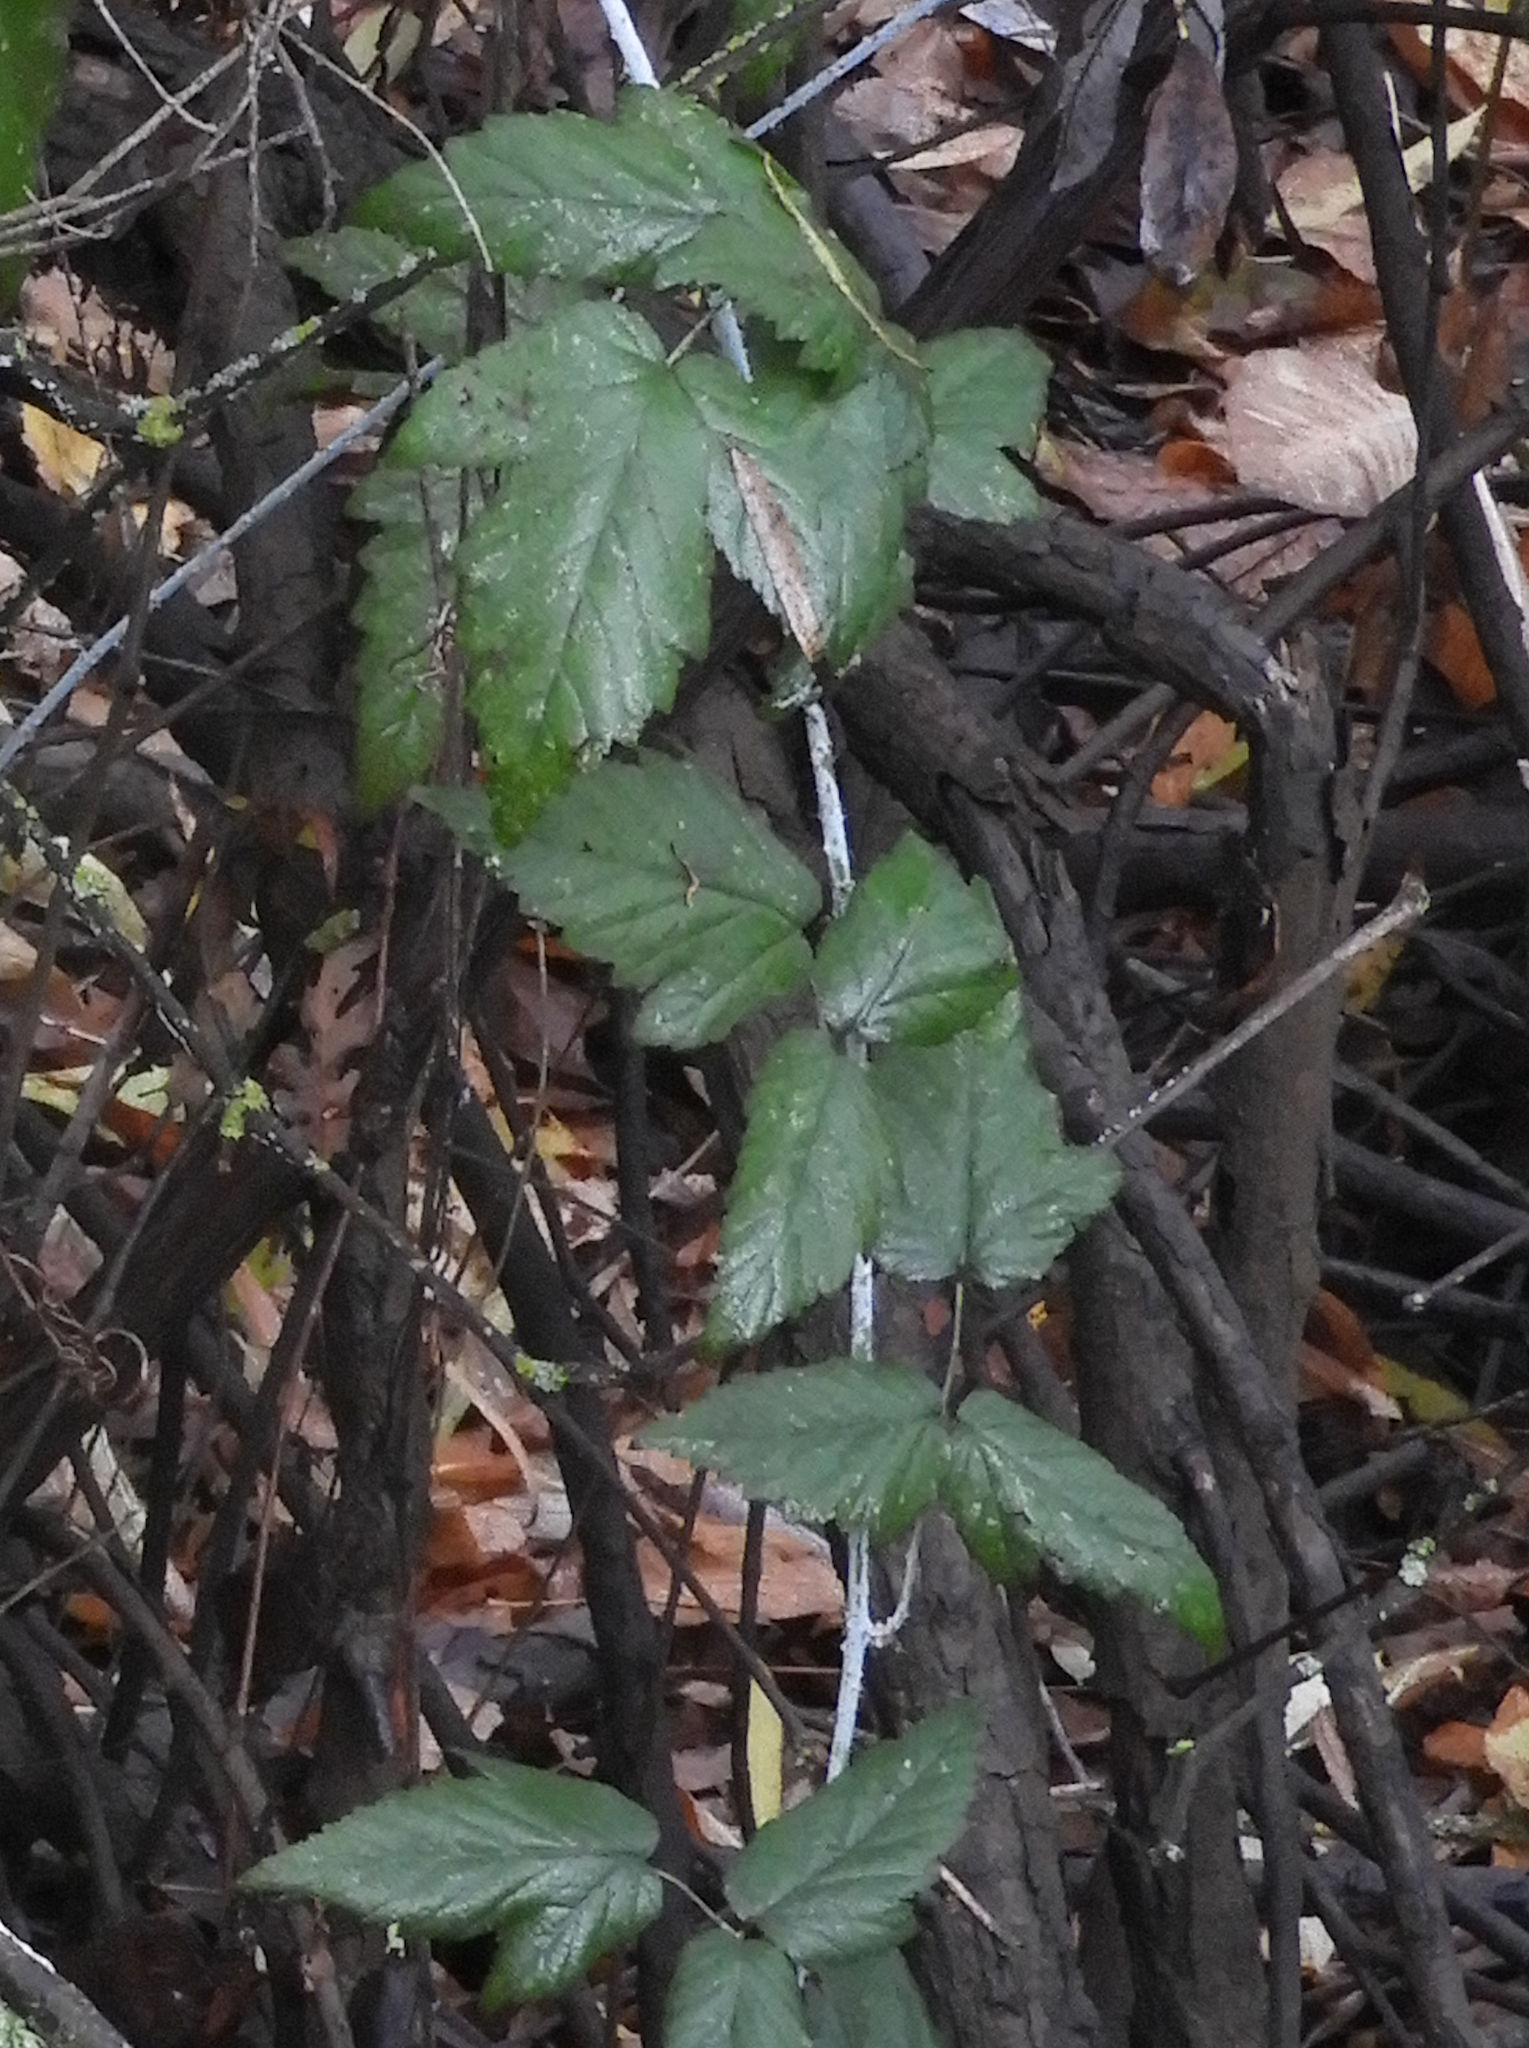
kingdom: Plantae
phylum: Tracheophyta
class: Magnoliopsida
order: Rosales
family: Rosaceae
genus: Rubus
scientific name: Rubus ursinus
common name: Pacific blackberry
